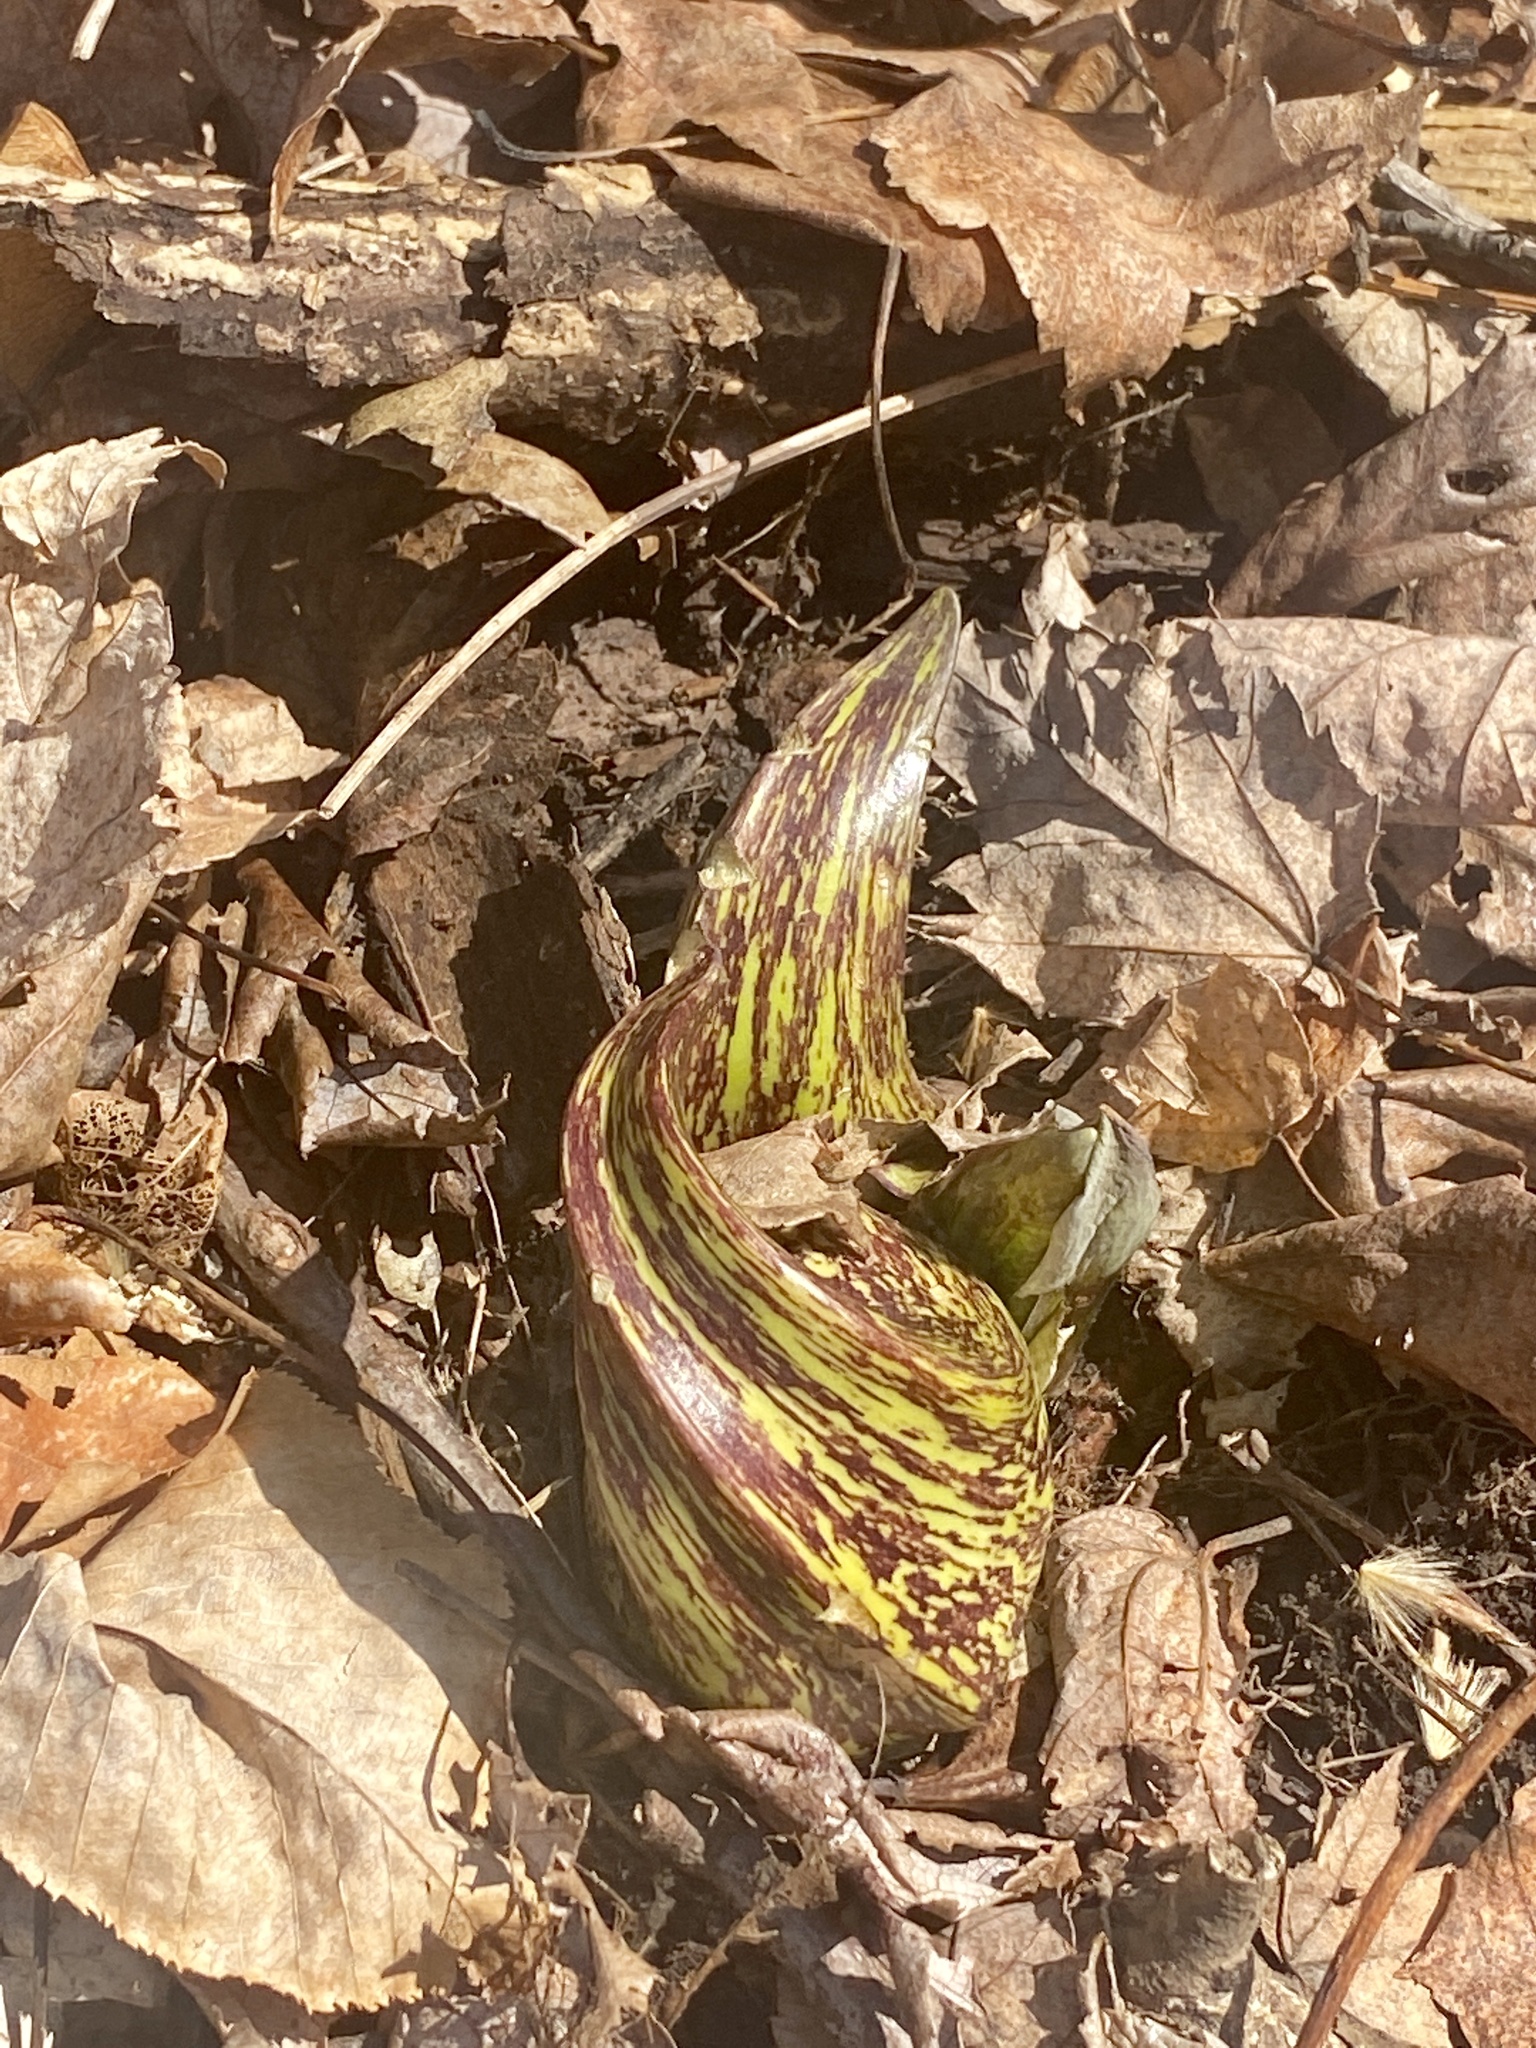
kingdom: Plantae
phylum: Tracheophyta
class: Liliopsida
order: Alismatales
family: Araceae
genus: Symplocarpus
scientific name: Symplocarpus foetidus
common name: Eastern skunk cabbage
